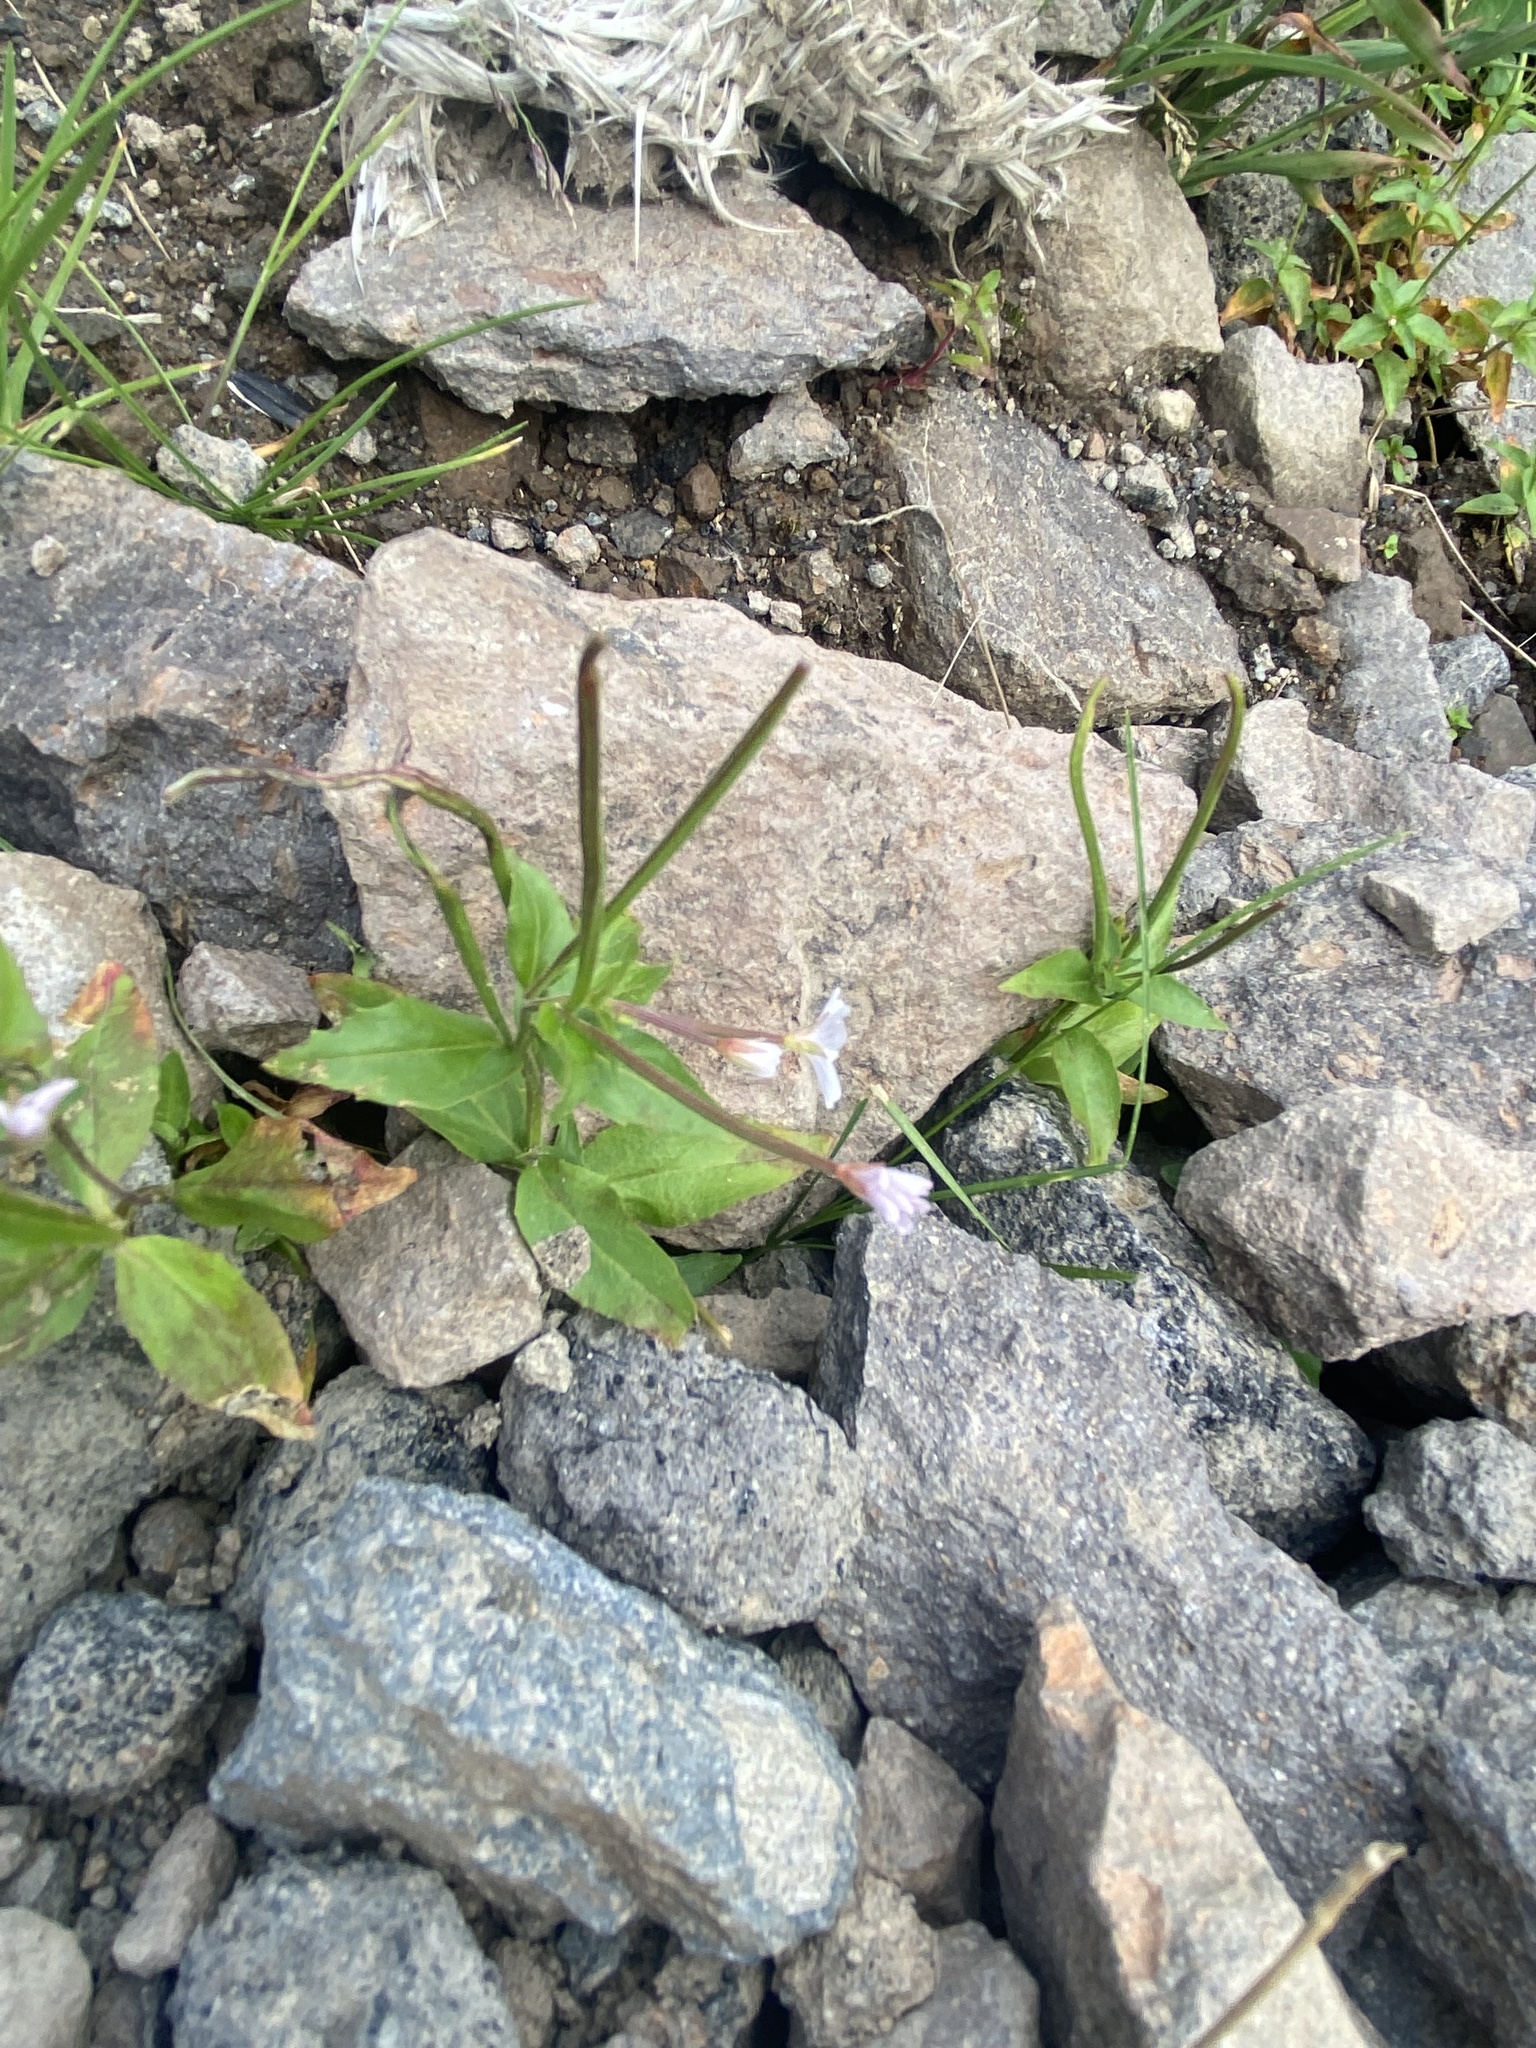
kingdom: Plantae
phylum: Tracheophyta
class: Magnoliopsida
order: Myrtales
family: Onagraceae
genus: Epilobium
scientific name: Epilobium anagallidifolium
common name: Alpine willowherb
